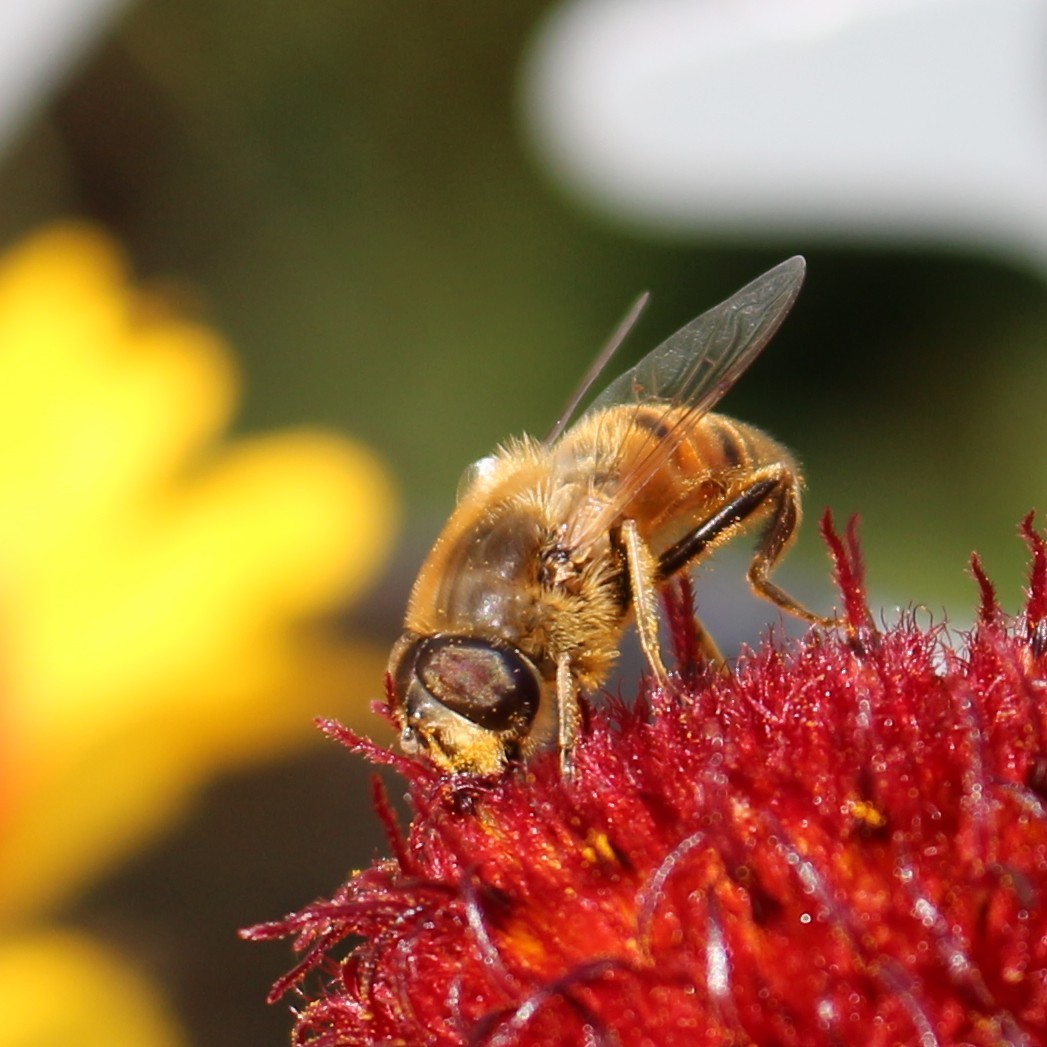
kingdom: Animalia
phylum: Arthropoda
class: Insecta
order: Diptera
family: Syrphidae
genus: Eristalis
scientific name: Eristalis tenax
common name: Drone fly
